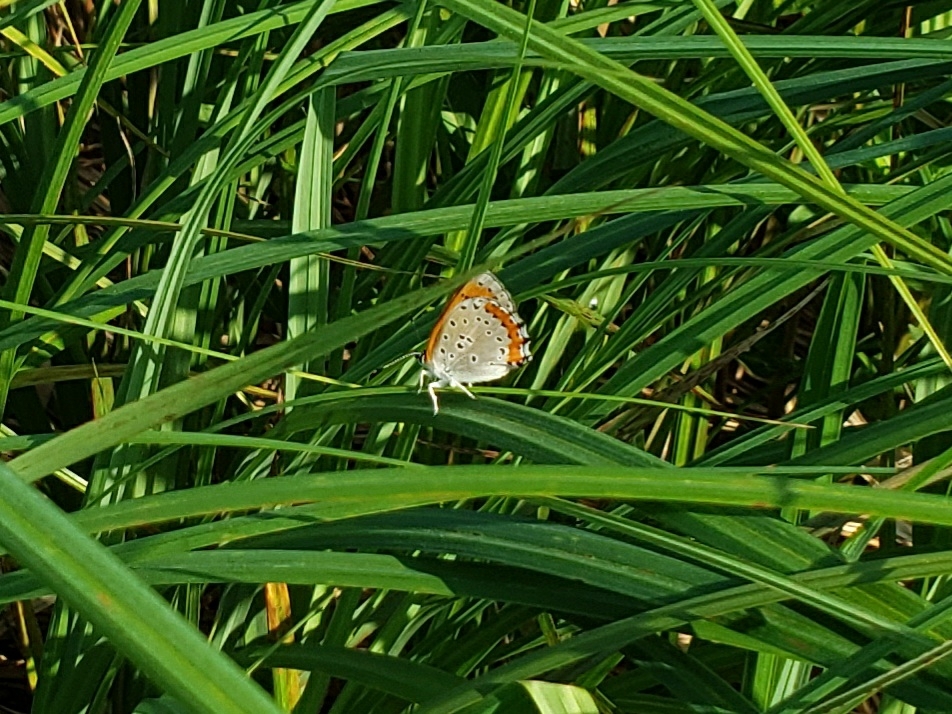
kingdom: Animalia
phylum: Arthropoda
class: Insecta
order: Lepidoptera
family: Lycaenidae
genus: Tharsalea
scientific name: Tharsalea hyllus
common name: Bronze copper
